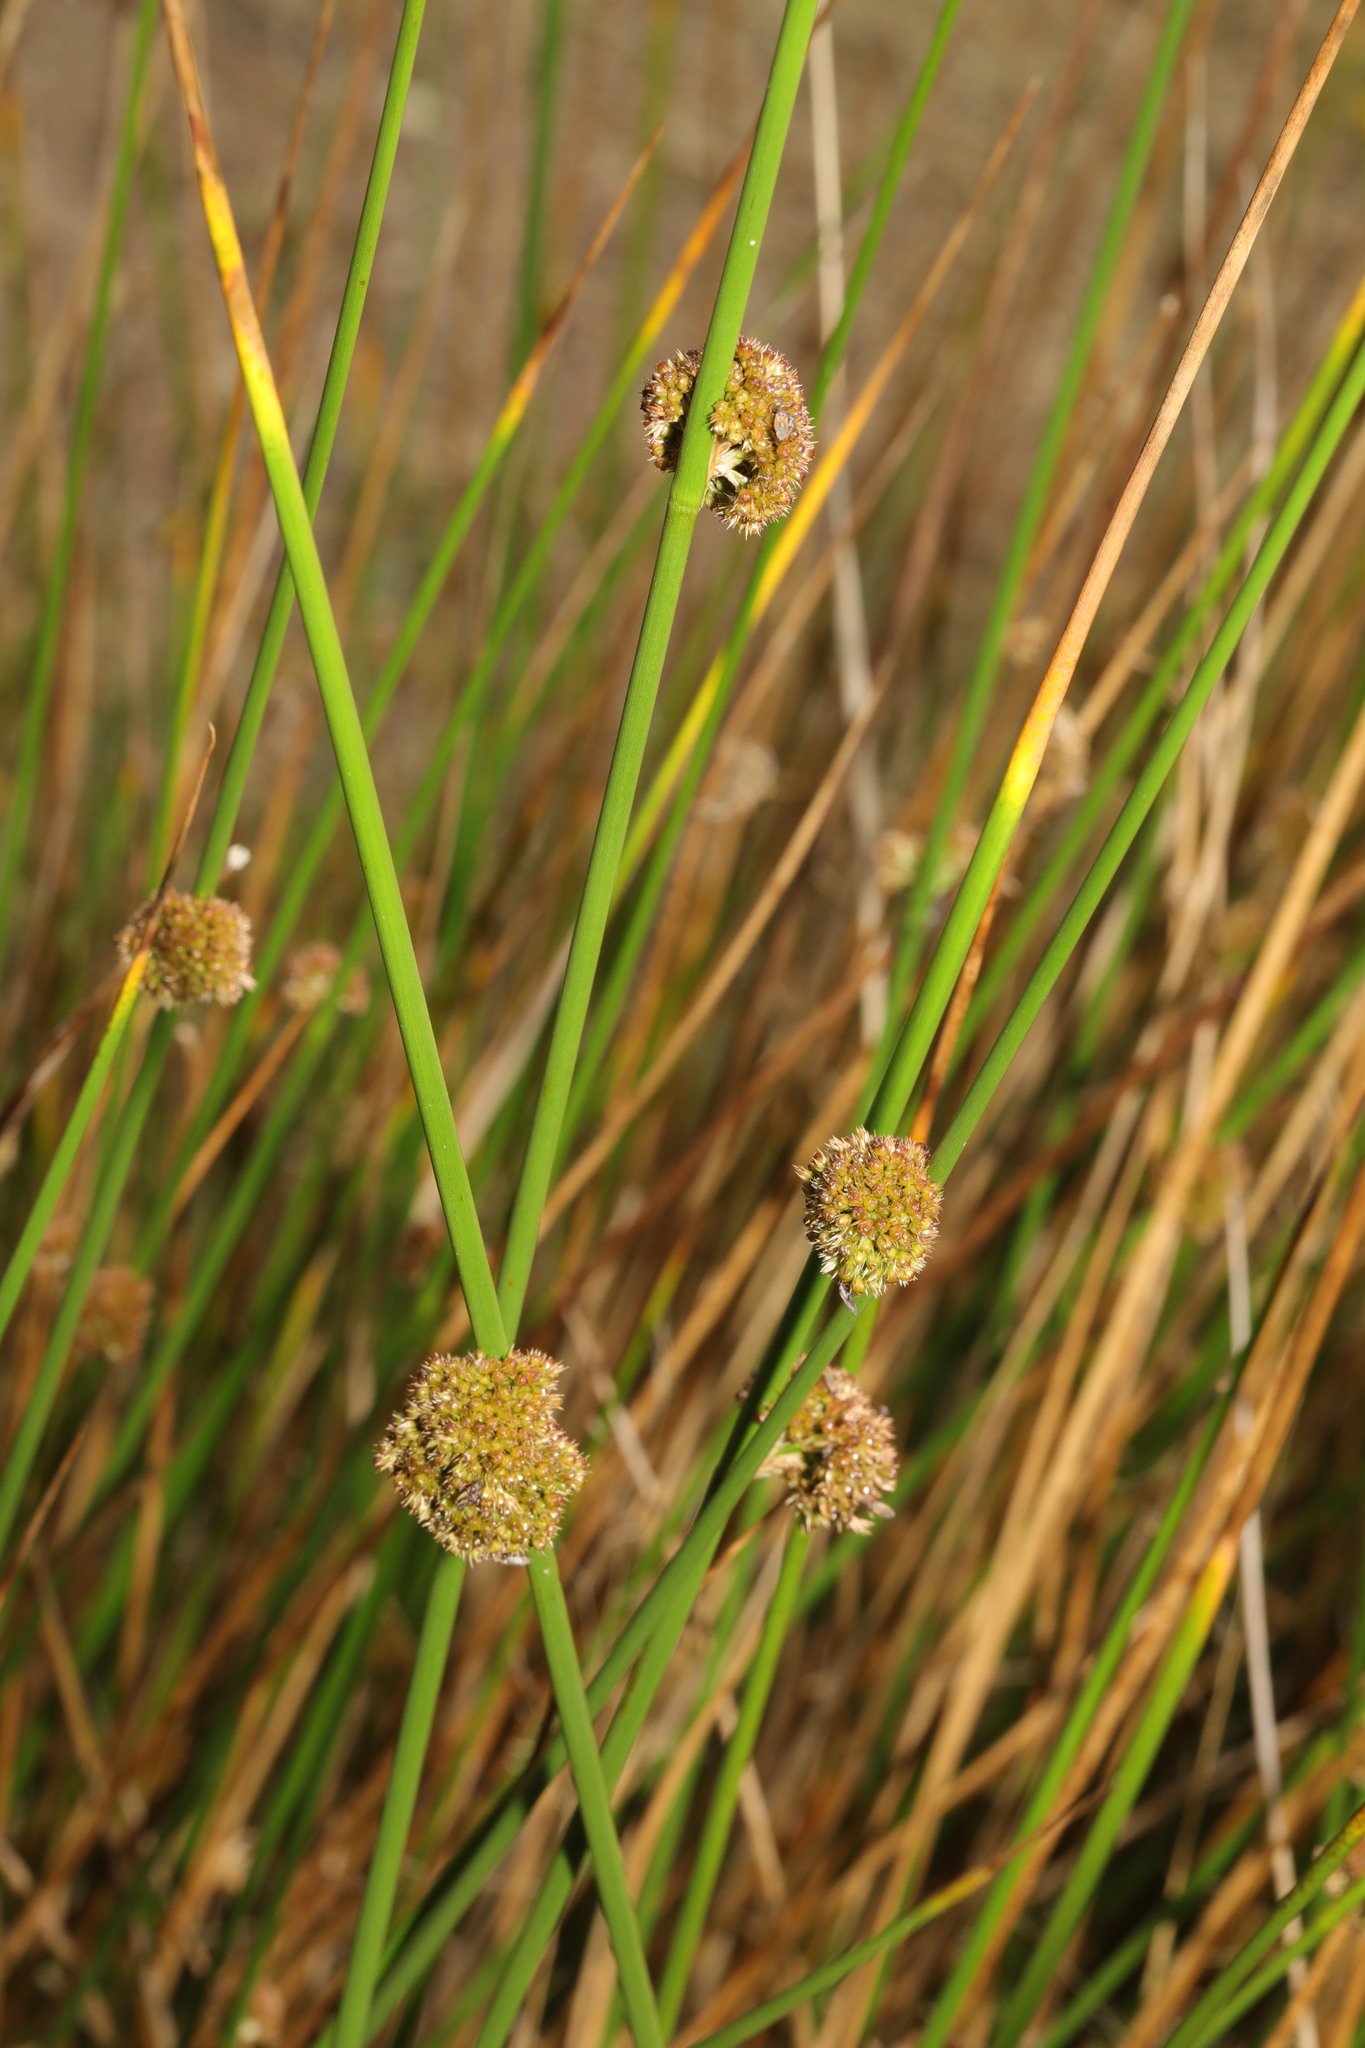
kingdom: Plantae
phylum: Tracheophyta
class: Liliopsida
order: Poales
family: Juncaceae
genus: Juncus
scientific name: Juncus effusus
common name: Soft rush
